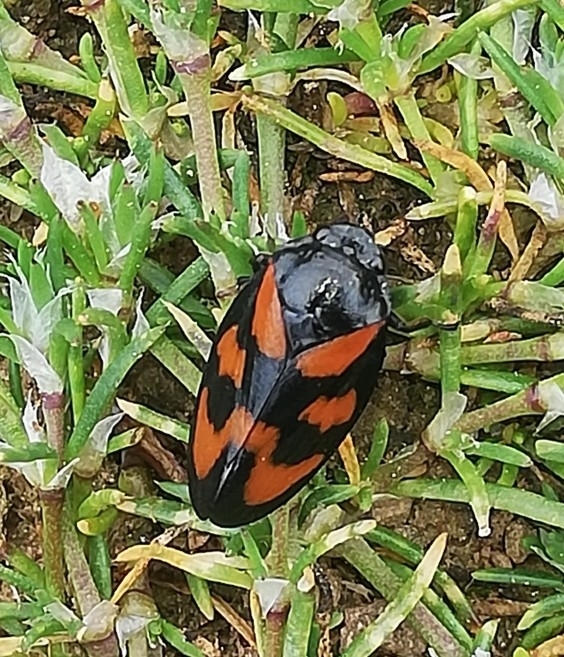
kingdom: Animalia
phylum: Arthropoda
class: Insecta
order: Hemiptera
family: Cercopidae
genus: Cercopis
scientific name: Cercopis vulnerata
